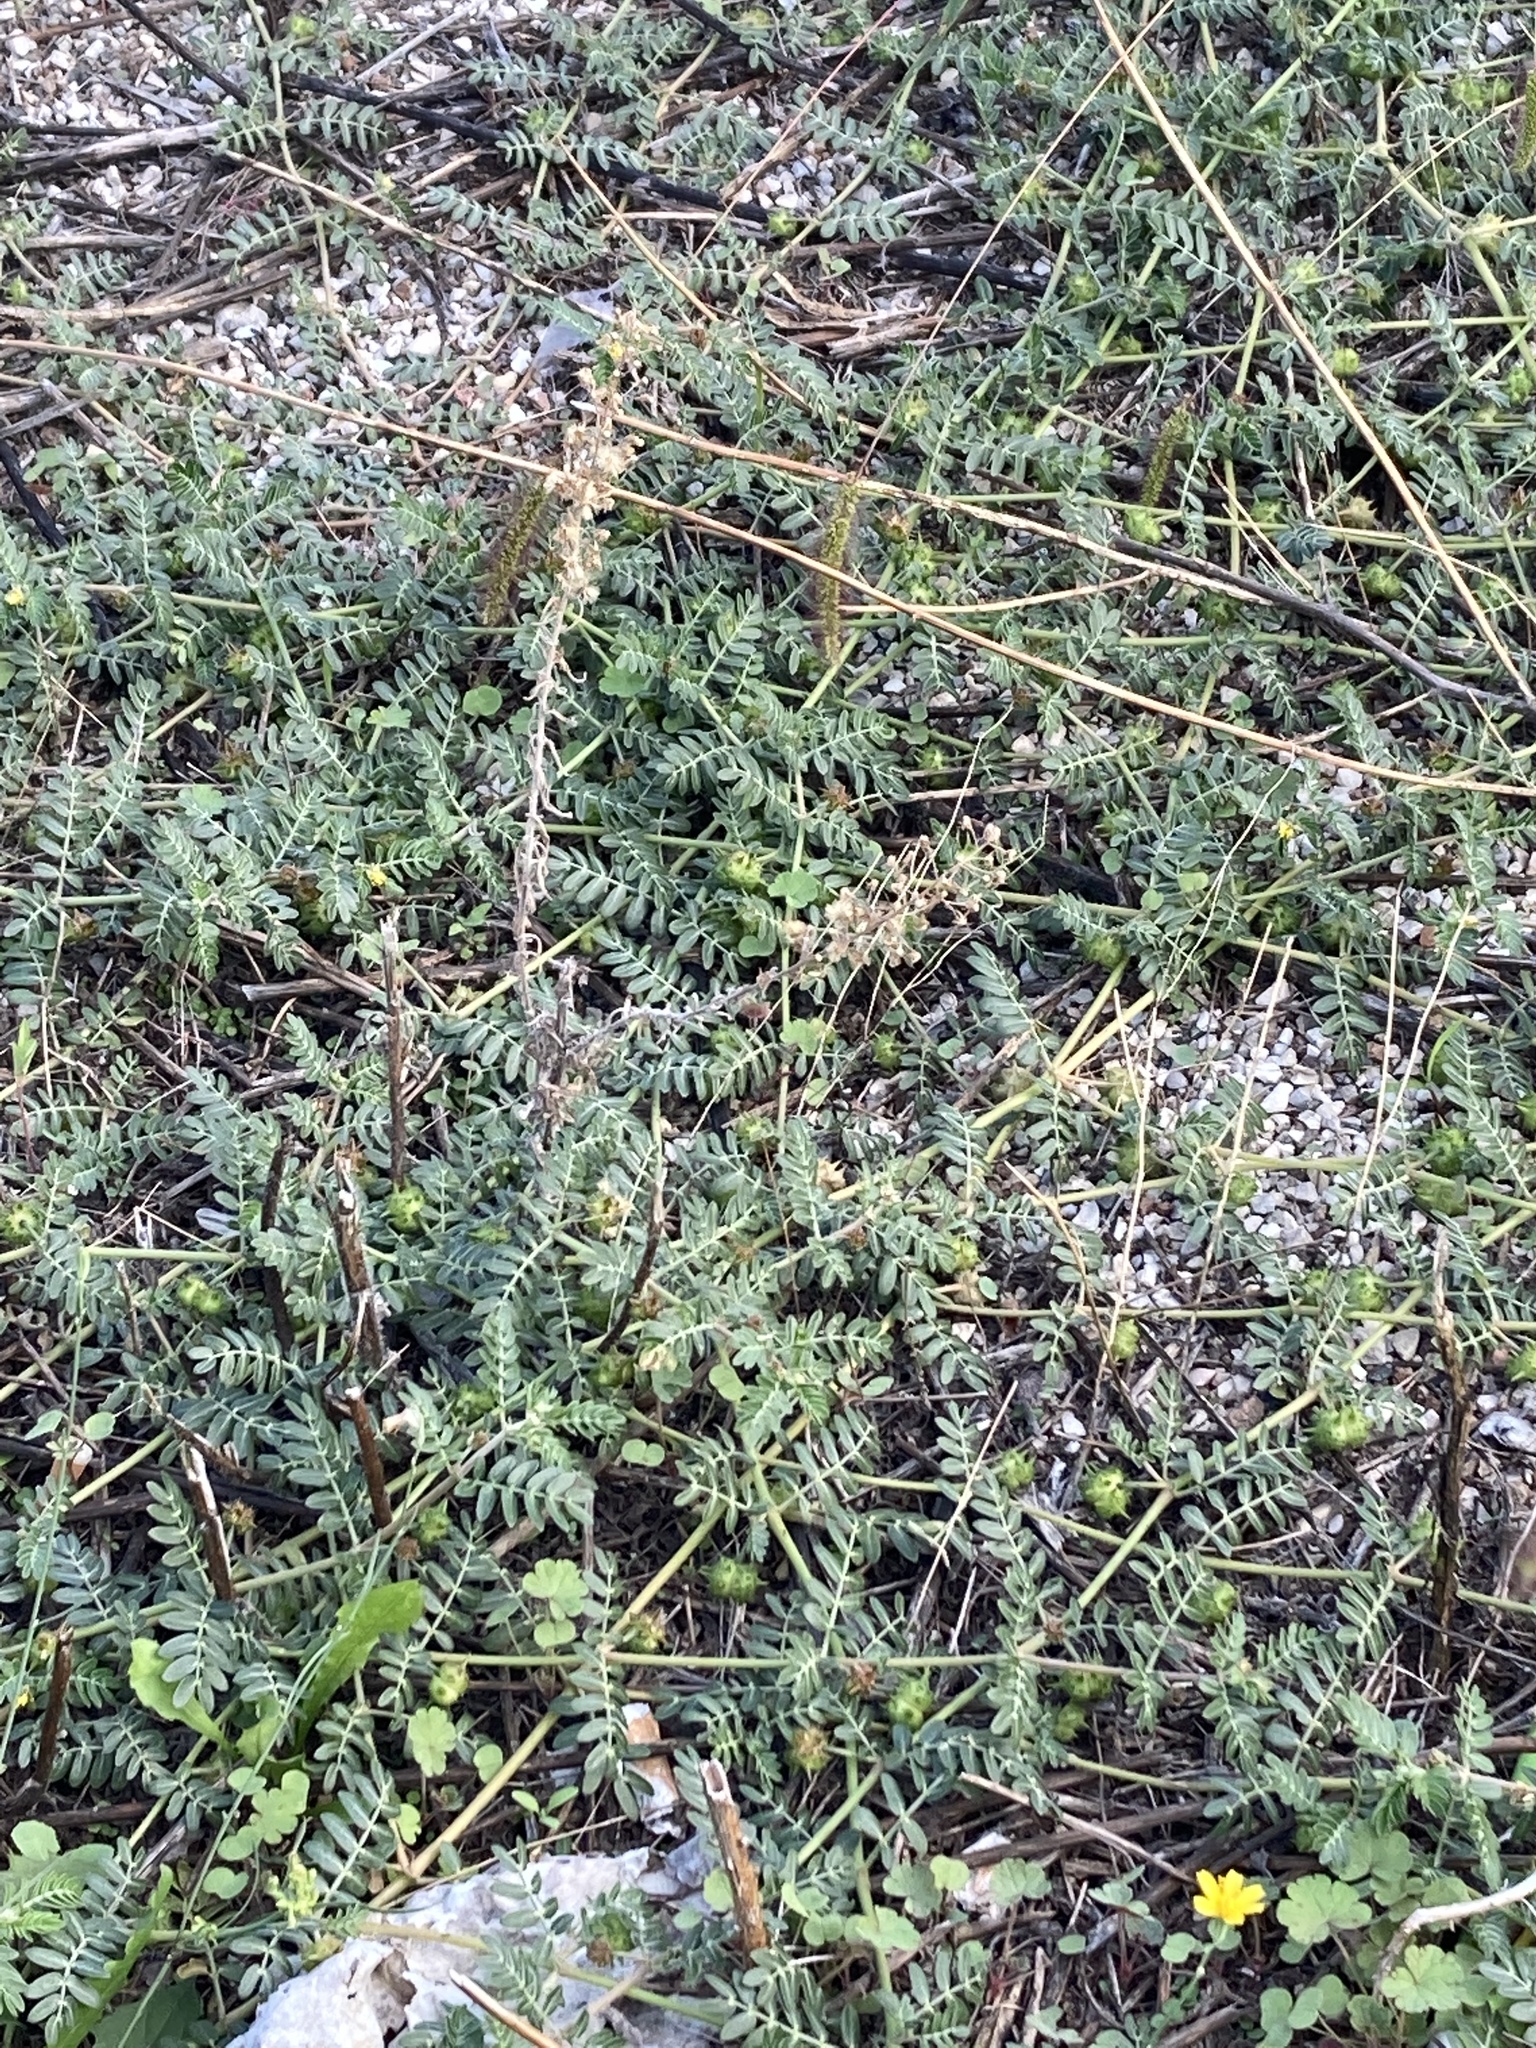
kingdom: Plantae
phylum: Tracheophyta
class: Magnoliopsida
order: Zygophyllales
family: Zygophyllaceae
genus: Tribulus
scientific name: Tribulus terrestris
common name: Puncturevine
